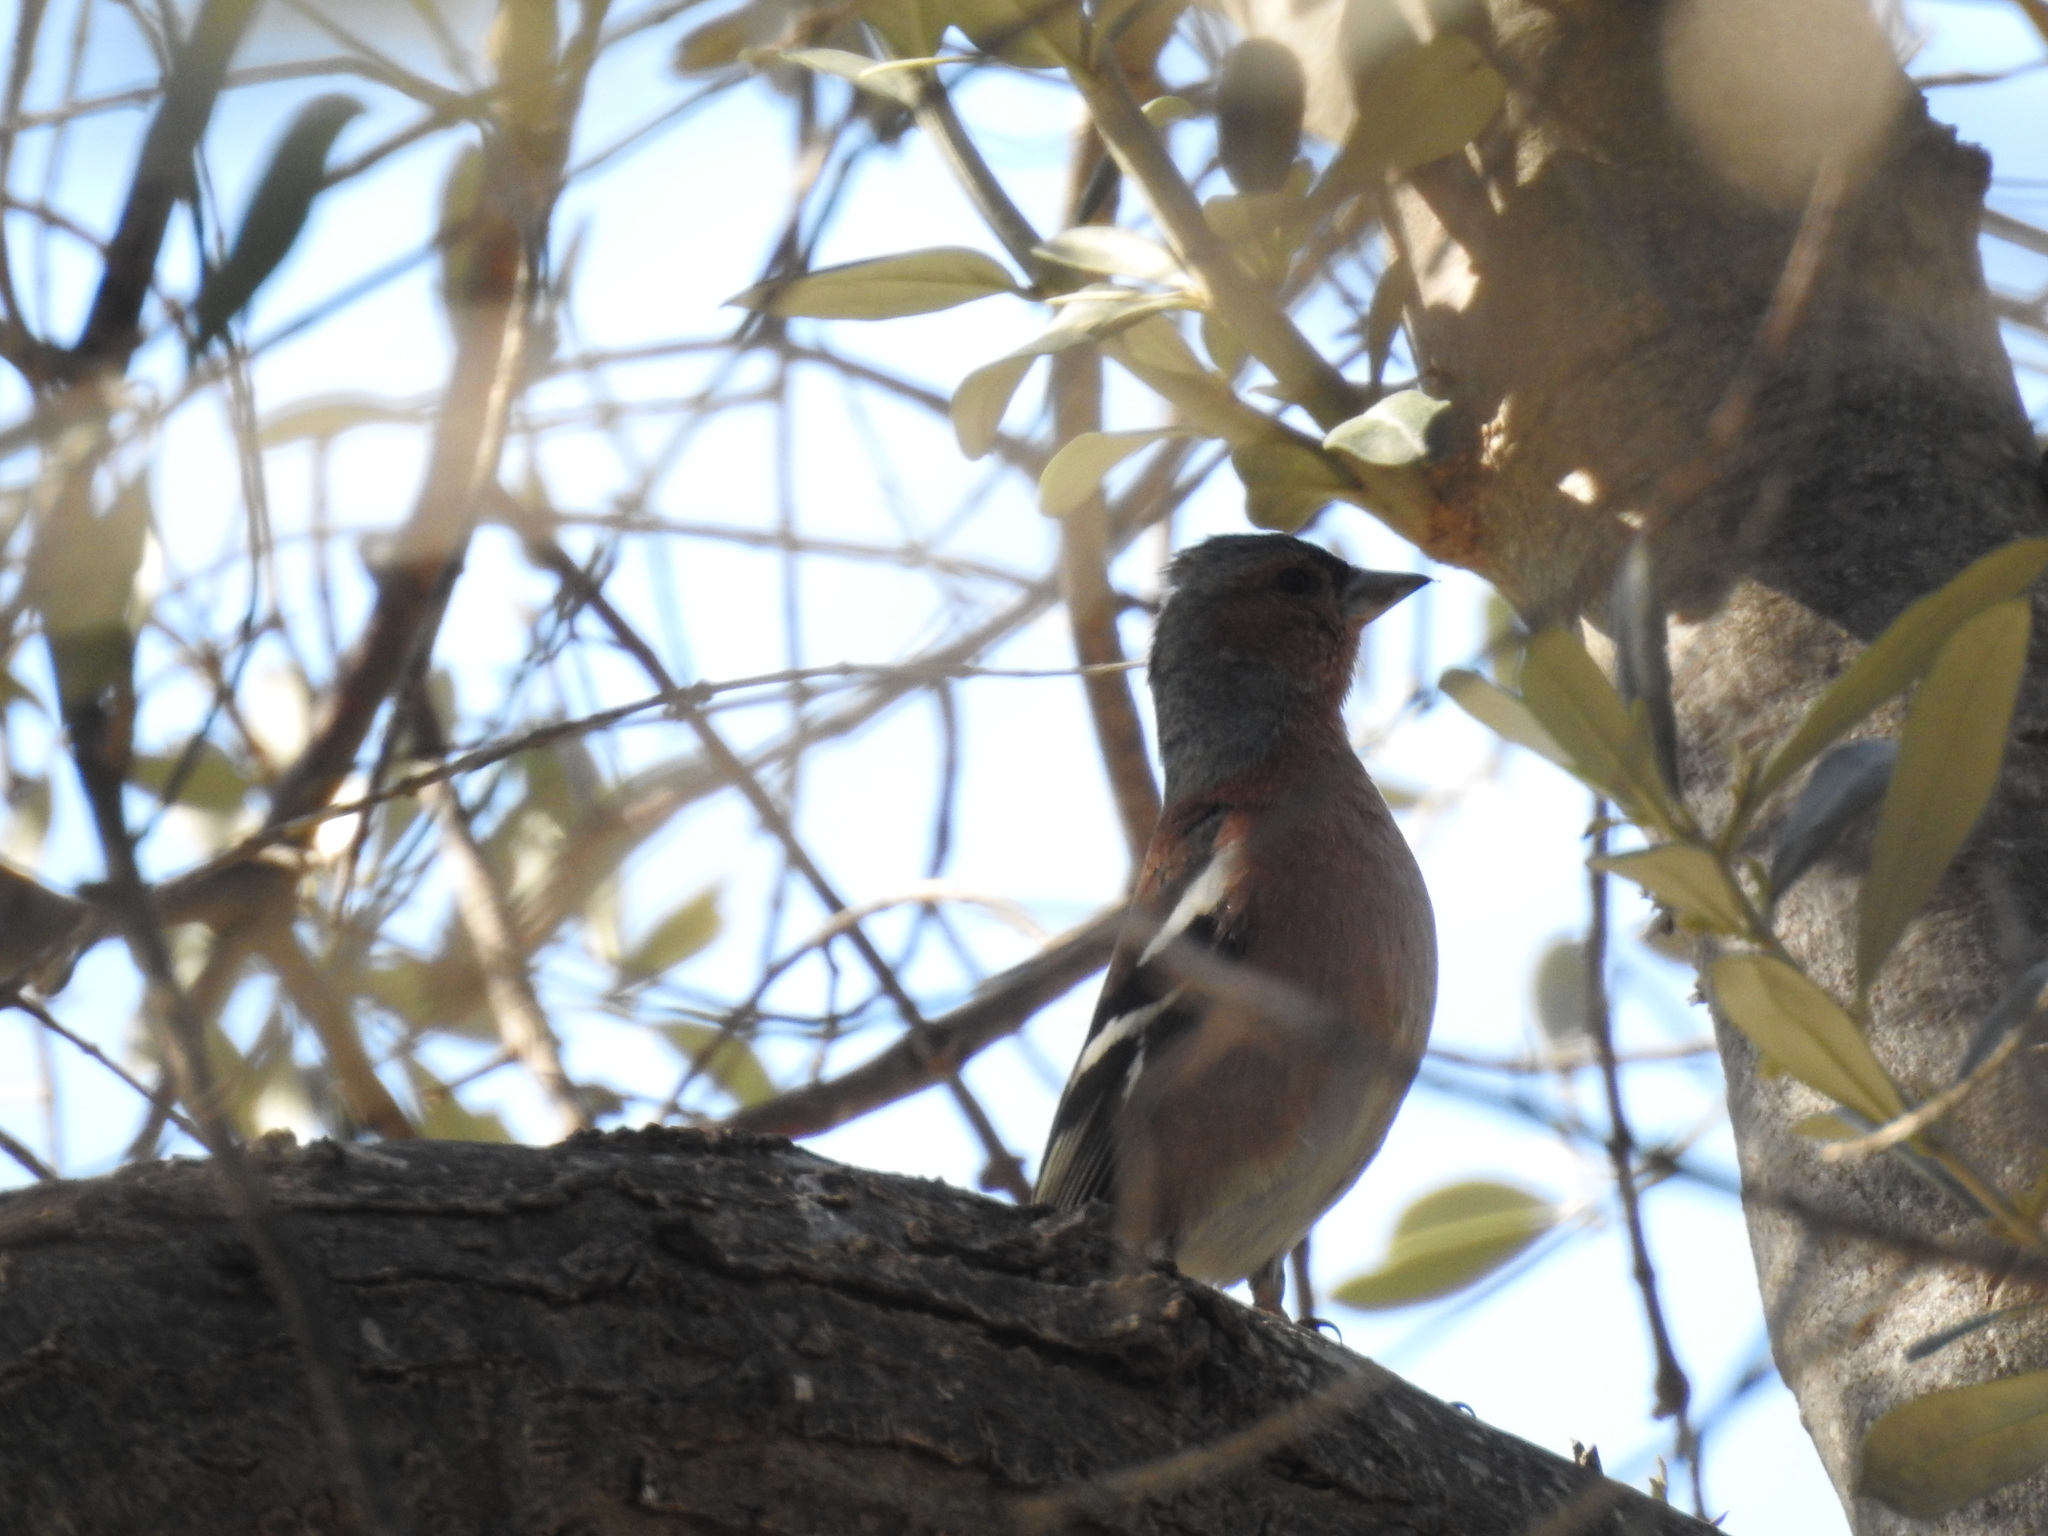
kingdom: Animalia
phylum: Chordata
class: Aves
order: Passeriformes
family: Fringillidae
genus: Fringilla
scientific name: Fringilla coelebs
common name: Common chaffinch
